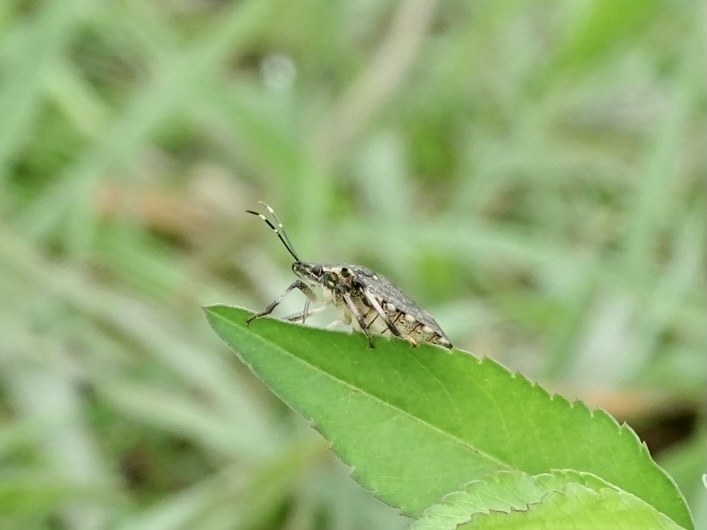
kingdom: Animalia
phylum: Arthropoda
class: Insecta
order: Hemiptera
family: Pentatomidae
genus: Halyomorpha
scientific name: Halyomorpha halys
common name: Brown marmorated stink bug
